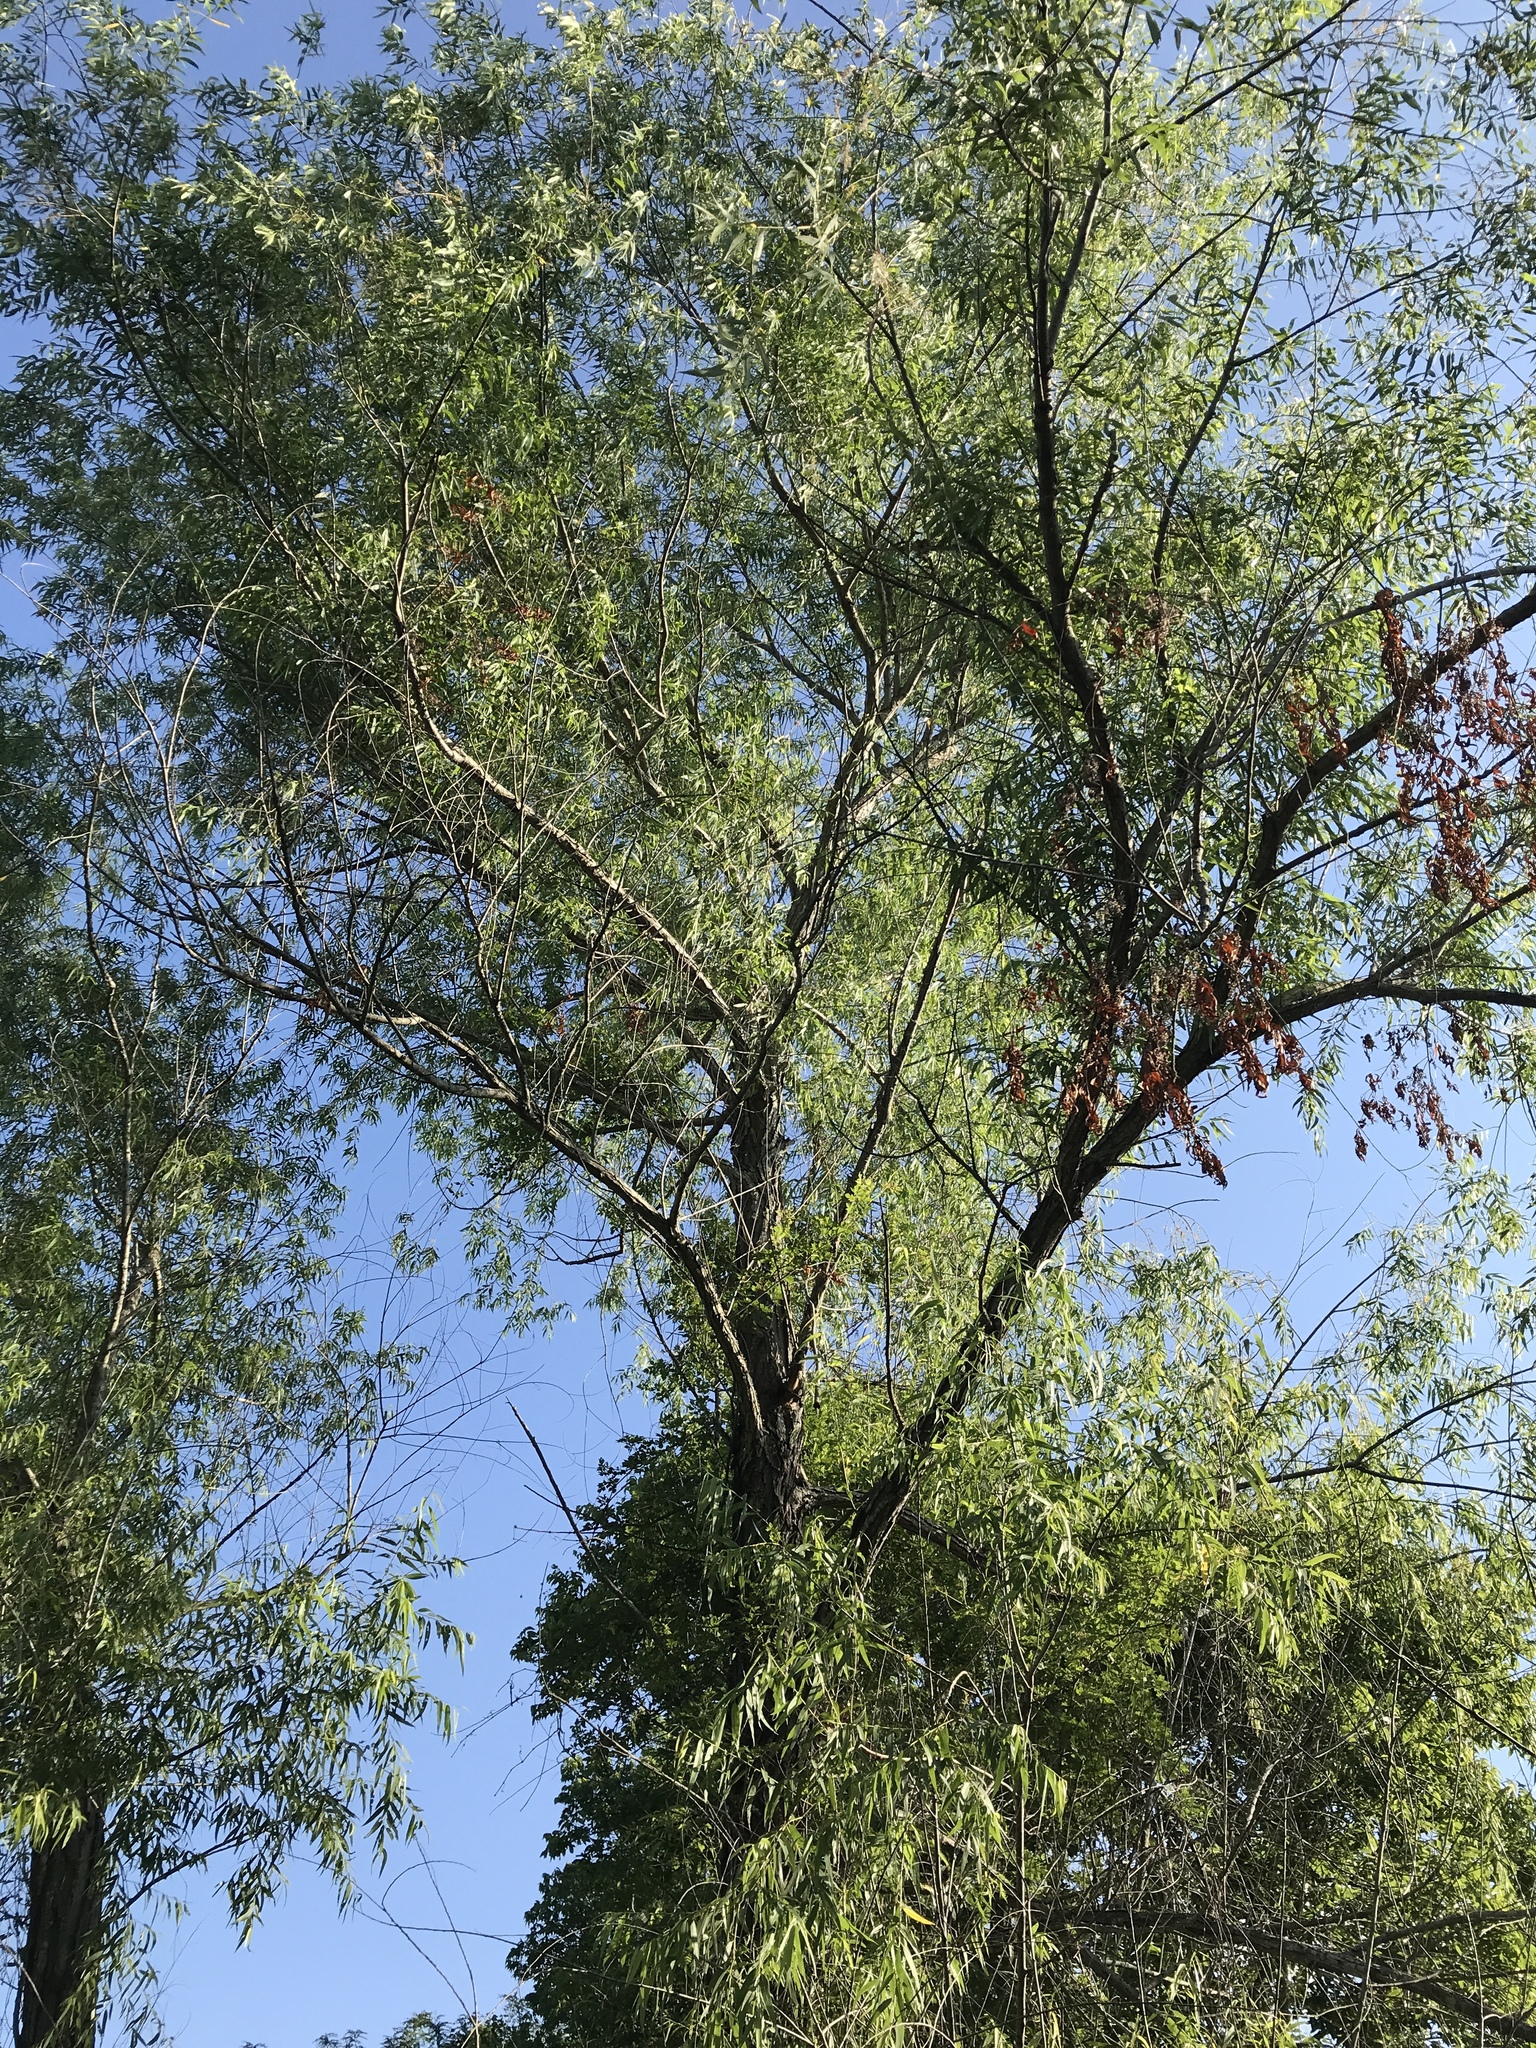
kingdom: Plantae
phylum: Tracheophyta
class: Magnoliopsida
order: Malpighiales
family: Salicaceae
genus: Salix
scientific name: Salix nigra
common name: Black willow
